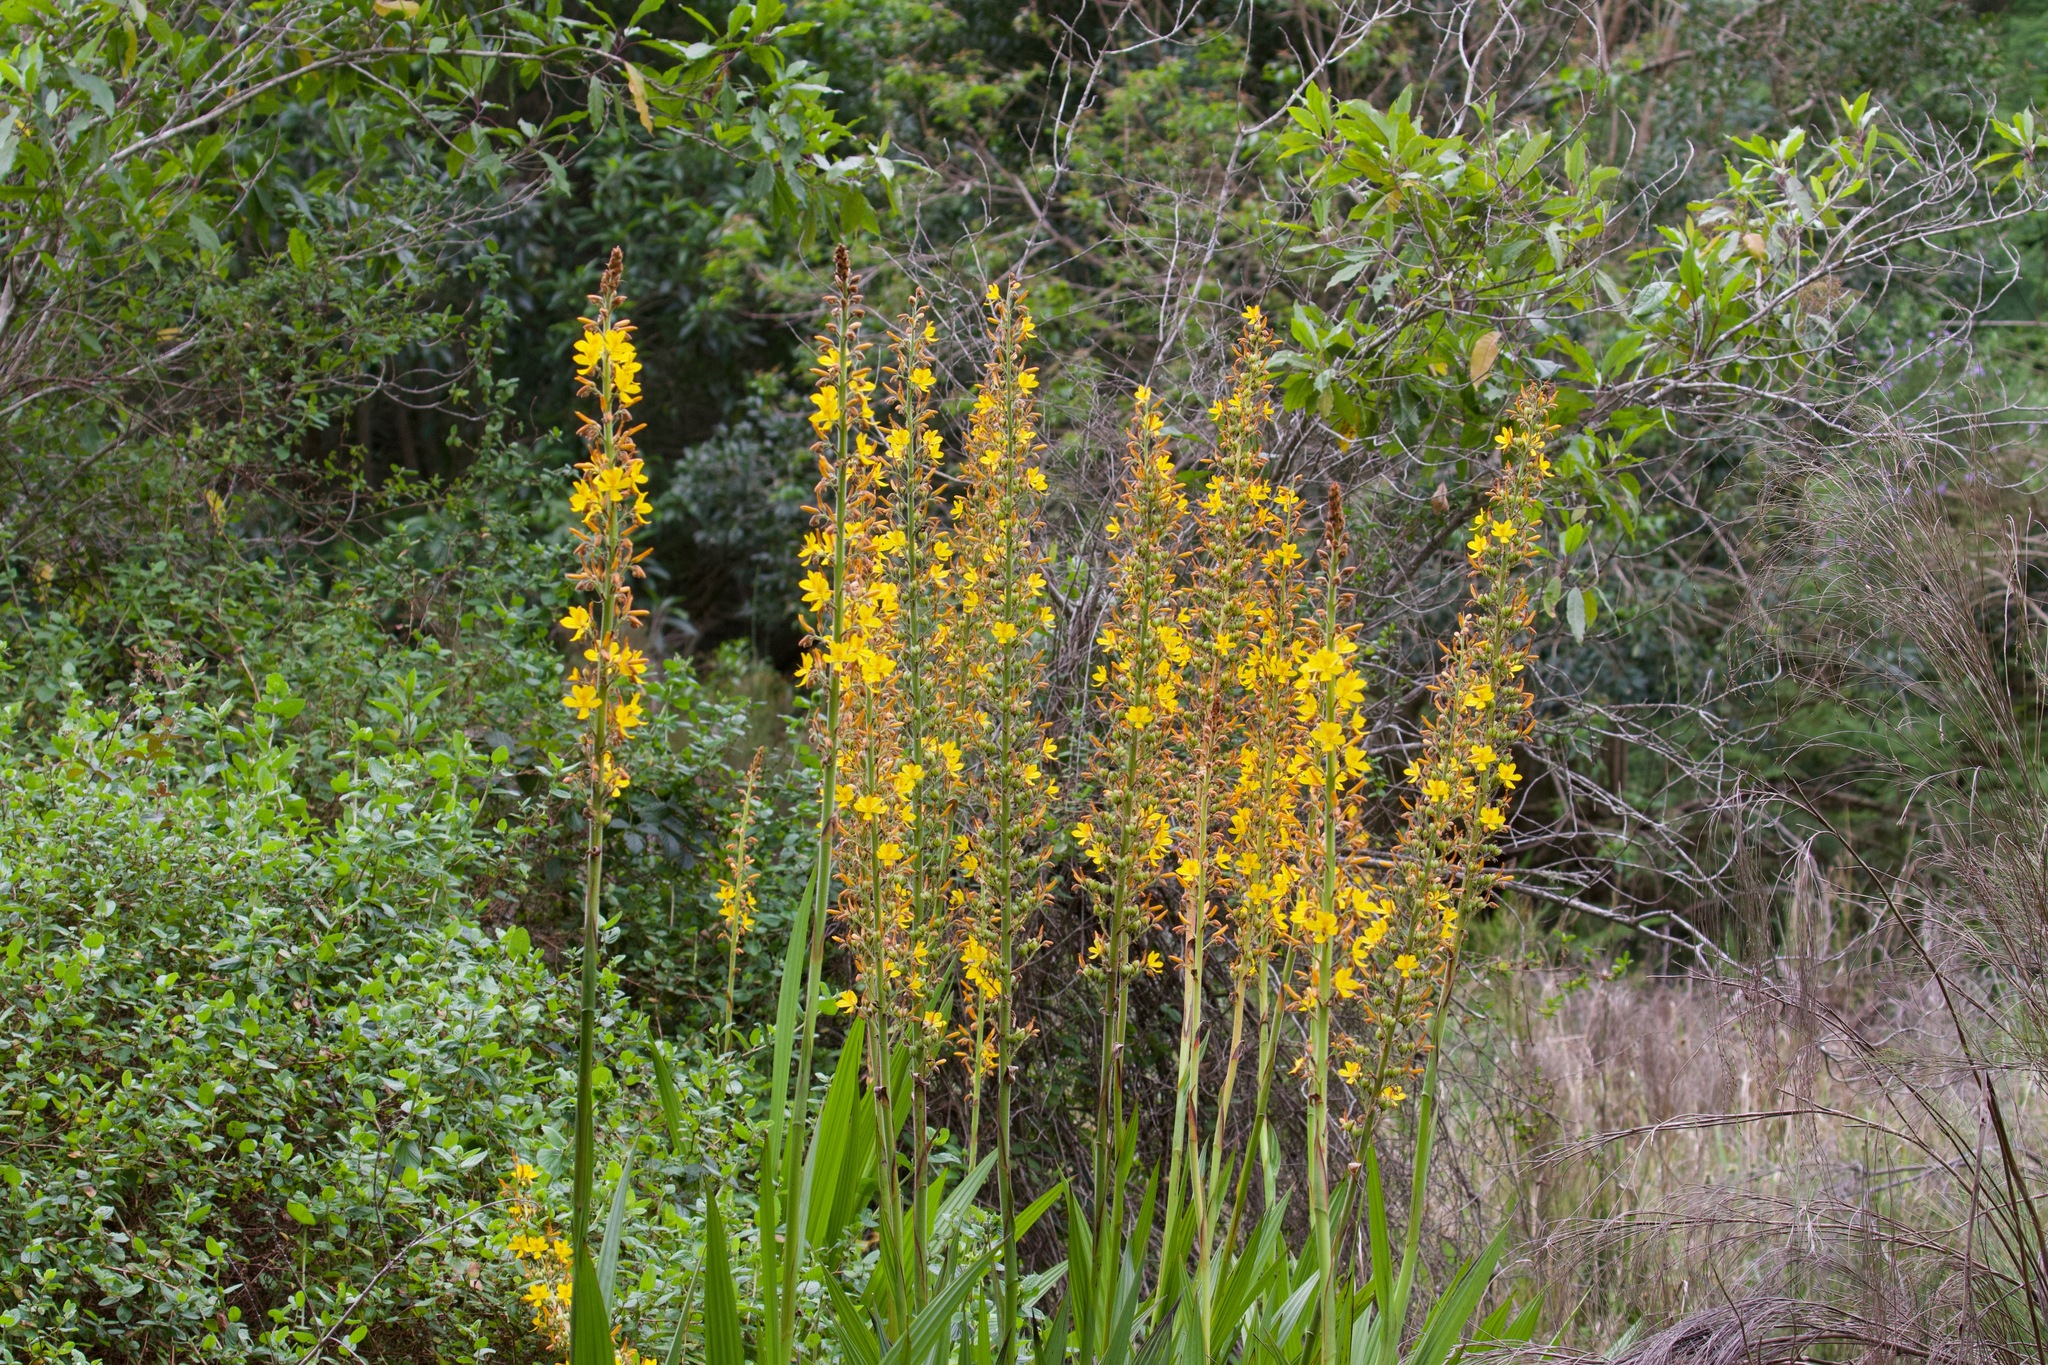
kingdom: Plantae
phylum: Tracheophyta
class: Liliopsida
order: Commelinales
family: Haemodoraceae
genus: Wachendorfia
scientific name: Wachendorfia thyrsiflora
